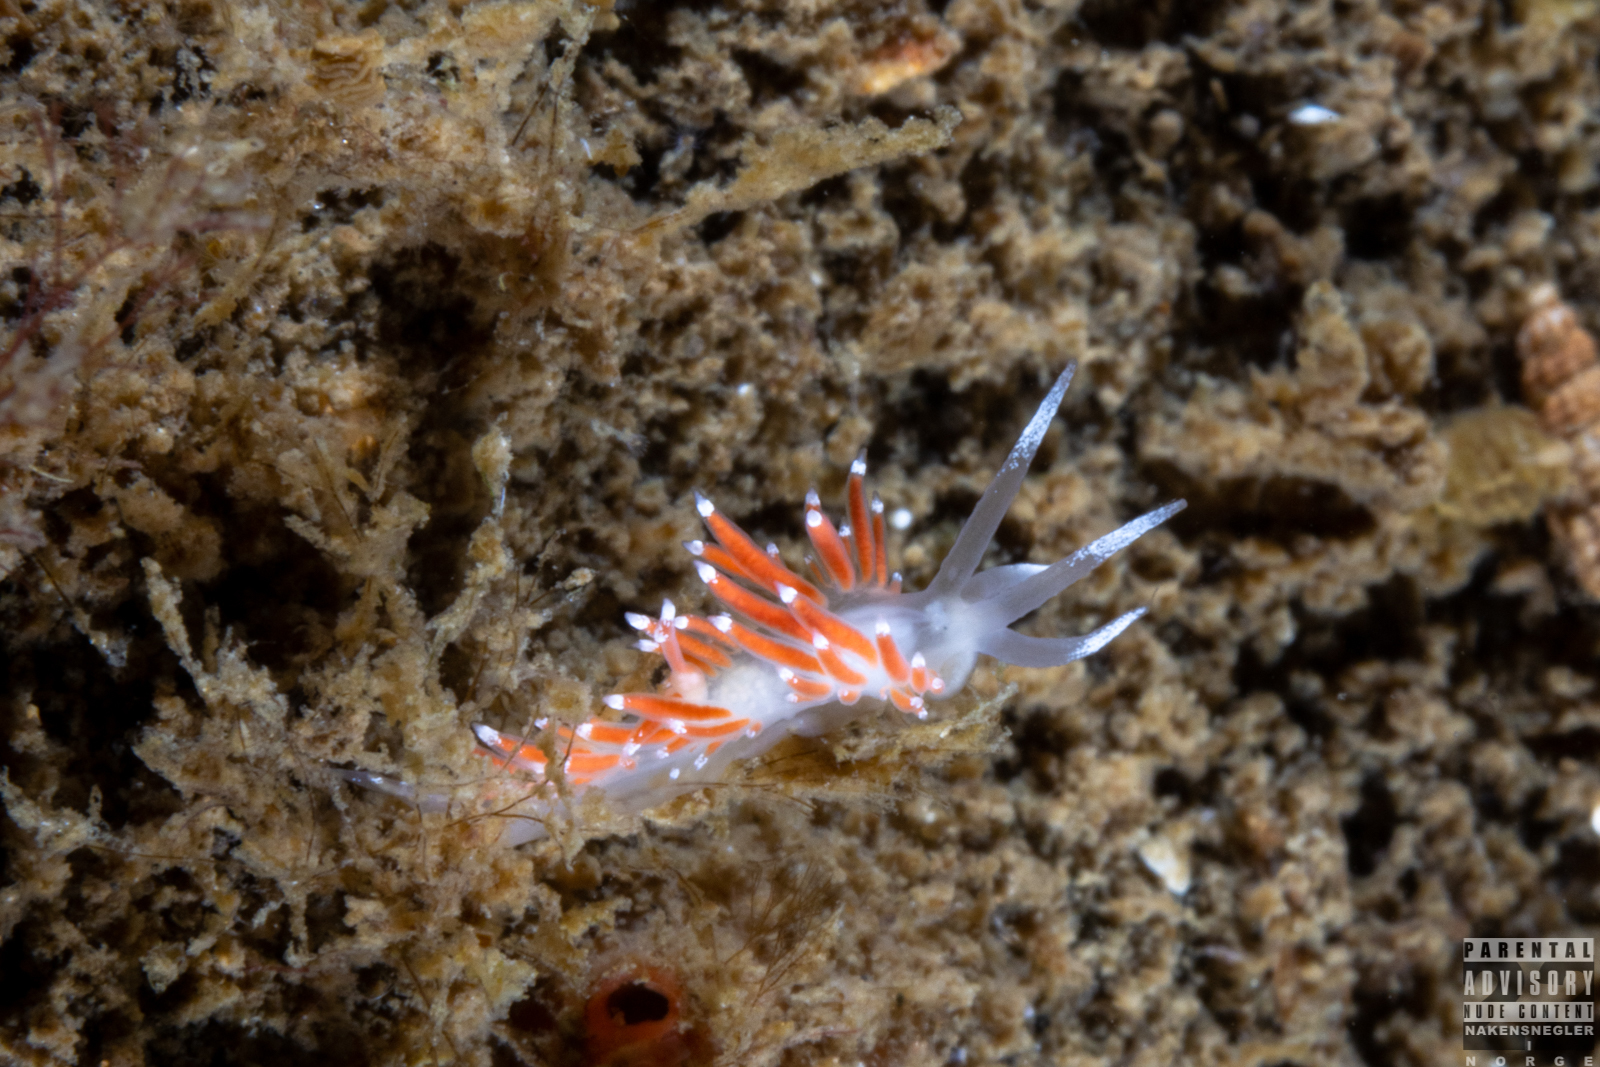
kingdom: Animalia
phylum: Mollusca
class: Gastropoda
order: Nudibranchia
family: Coryphellidae
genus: Coryphella
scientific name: Coryphella gracilis
